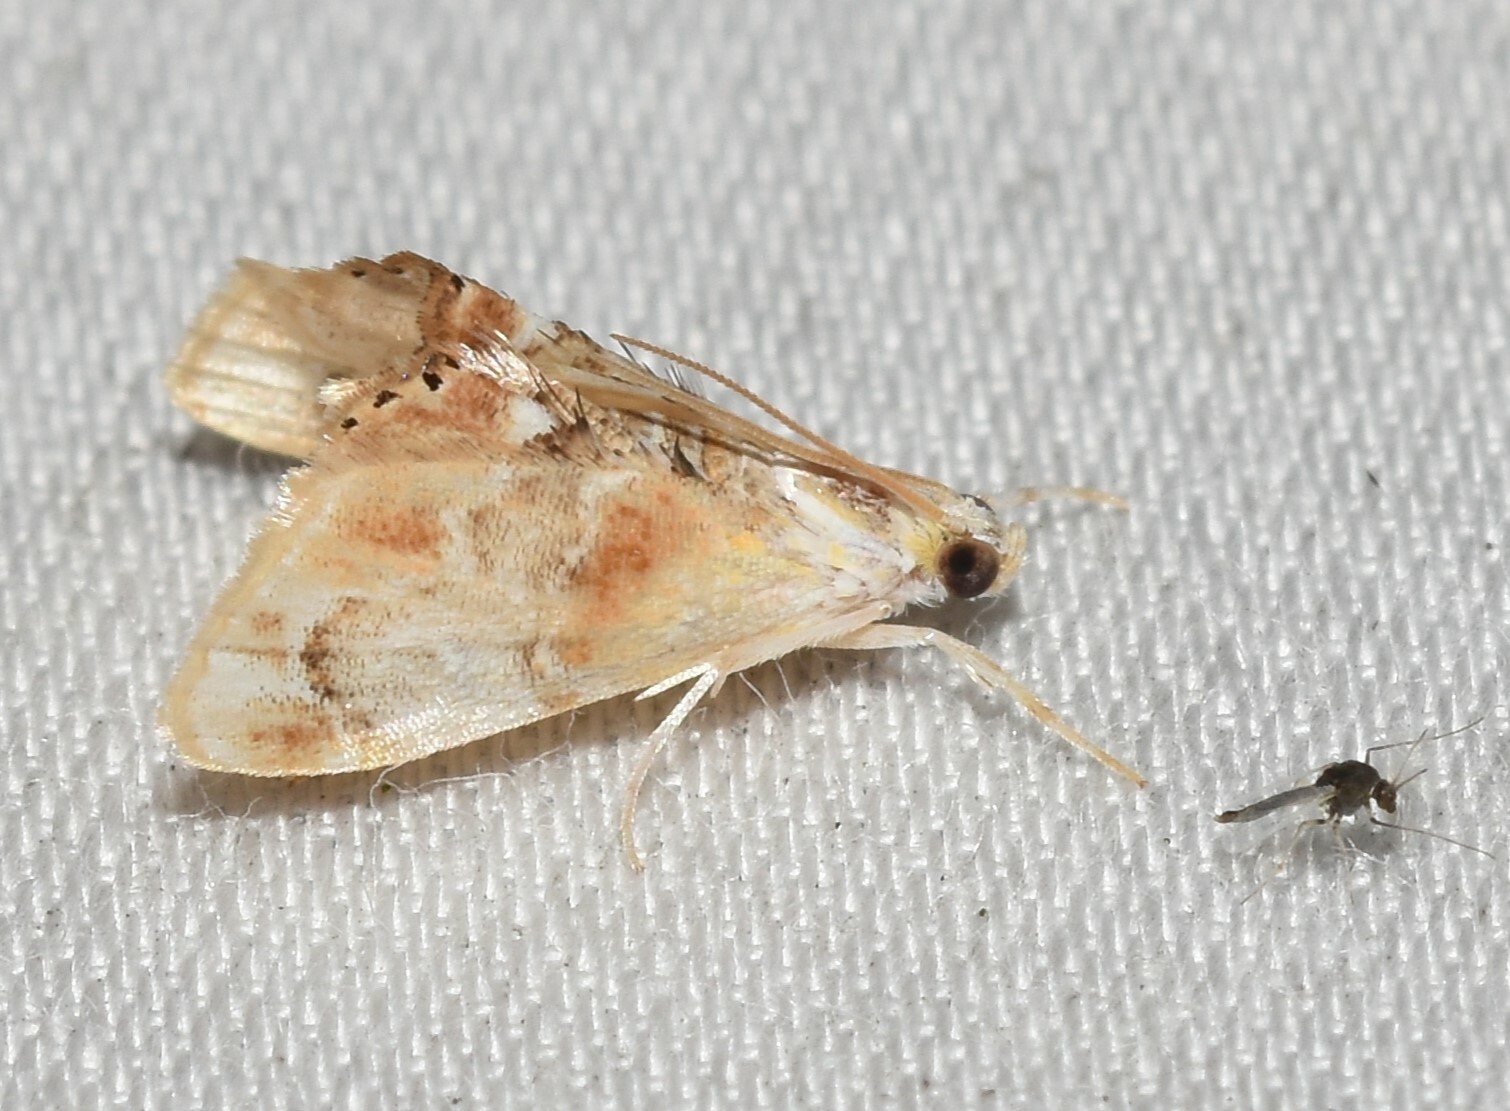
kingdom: Animalia
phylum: Arthropoda
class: Insecta
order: Lepidoptera
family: Crambidae
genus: Dicymolomia
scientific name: Dicymolomia julianalis
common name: Julia's dicymolomia moth
